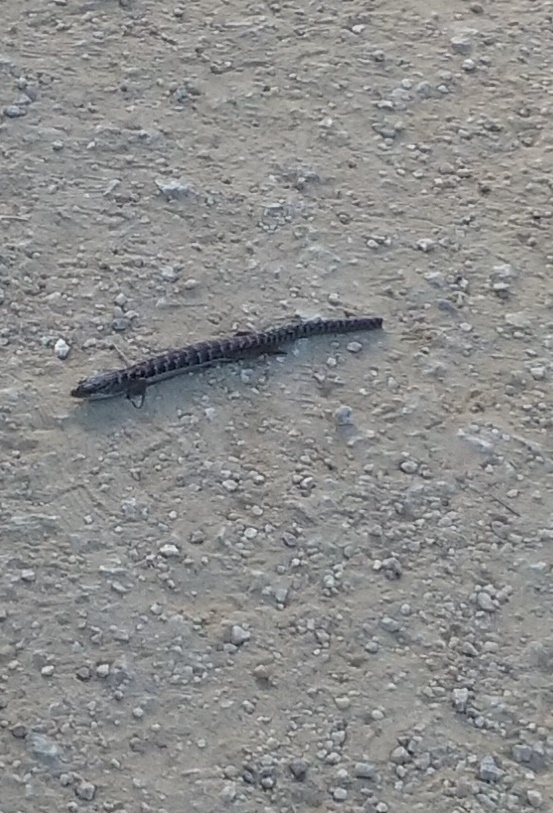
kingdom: Animalia
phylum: Chordata
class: Squamata
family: Anguidae
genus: Elgaria
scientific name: Elgaria multicarinata
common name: Southern alligator lizard
